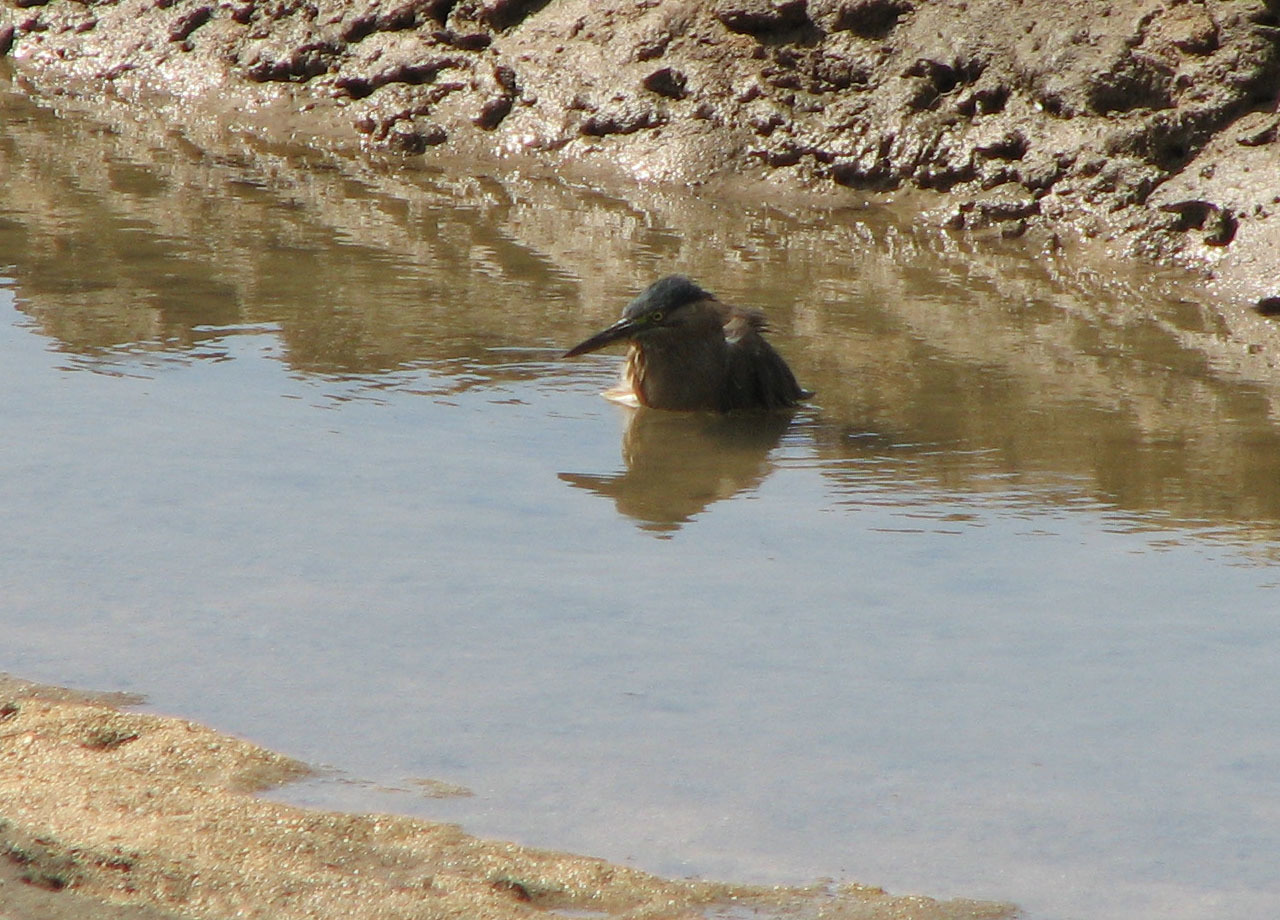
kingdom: Animalia
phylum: Chordata
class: Aves
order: Pelecaniformes
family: Ardeidae
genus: Butorides
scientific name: Butorides striata
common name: Striated heron
